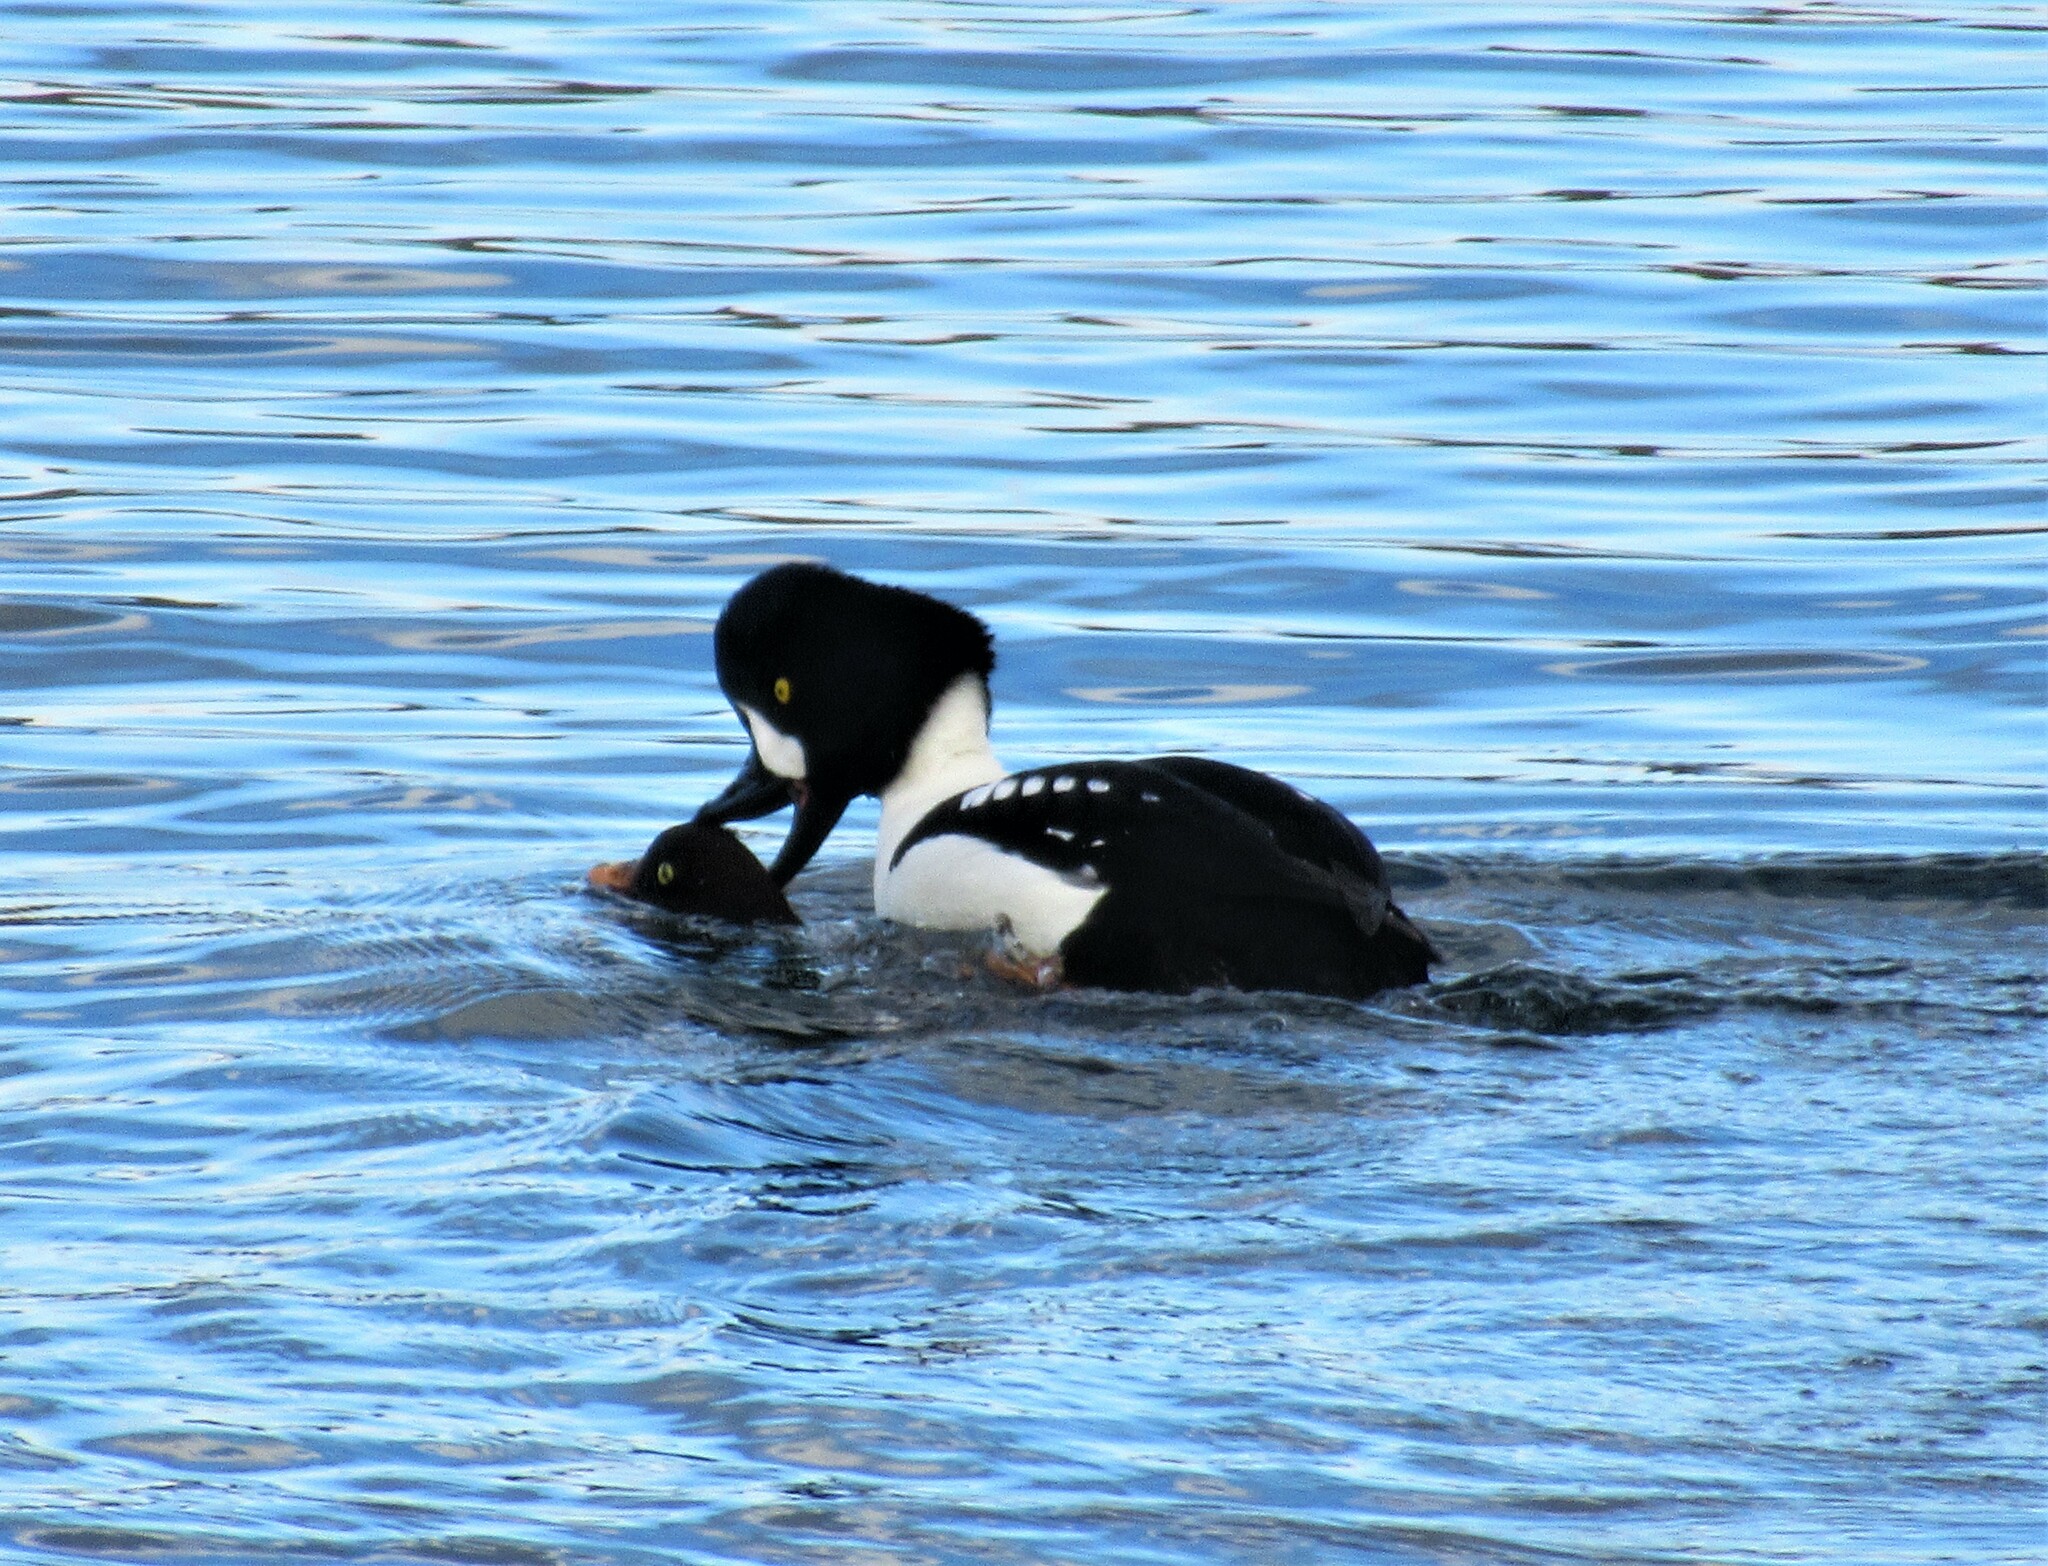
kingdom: Animalia
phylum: Chordata
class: Aves
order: Anseriformes
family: Anatidae
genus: Bucephala
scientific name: Bucephala islandica
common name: Barrow's goldeneye
